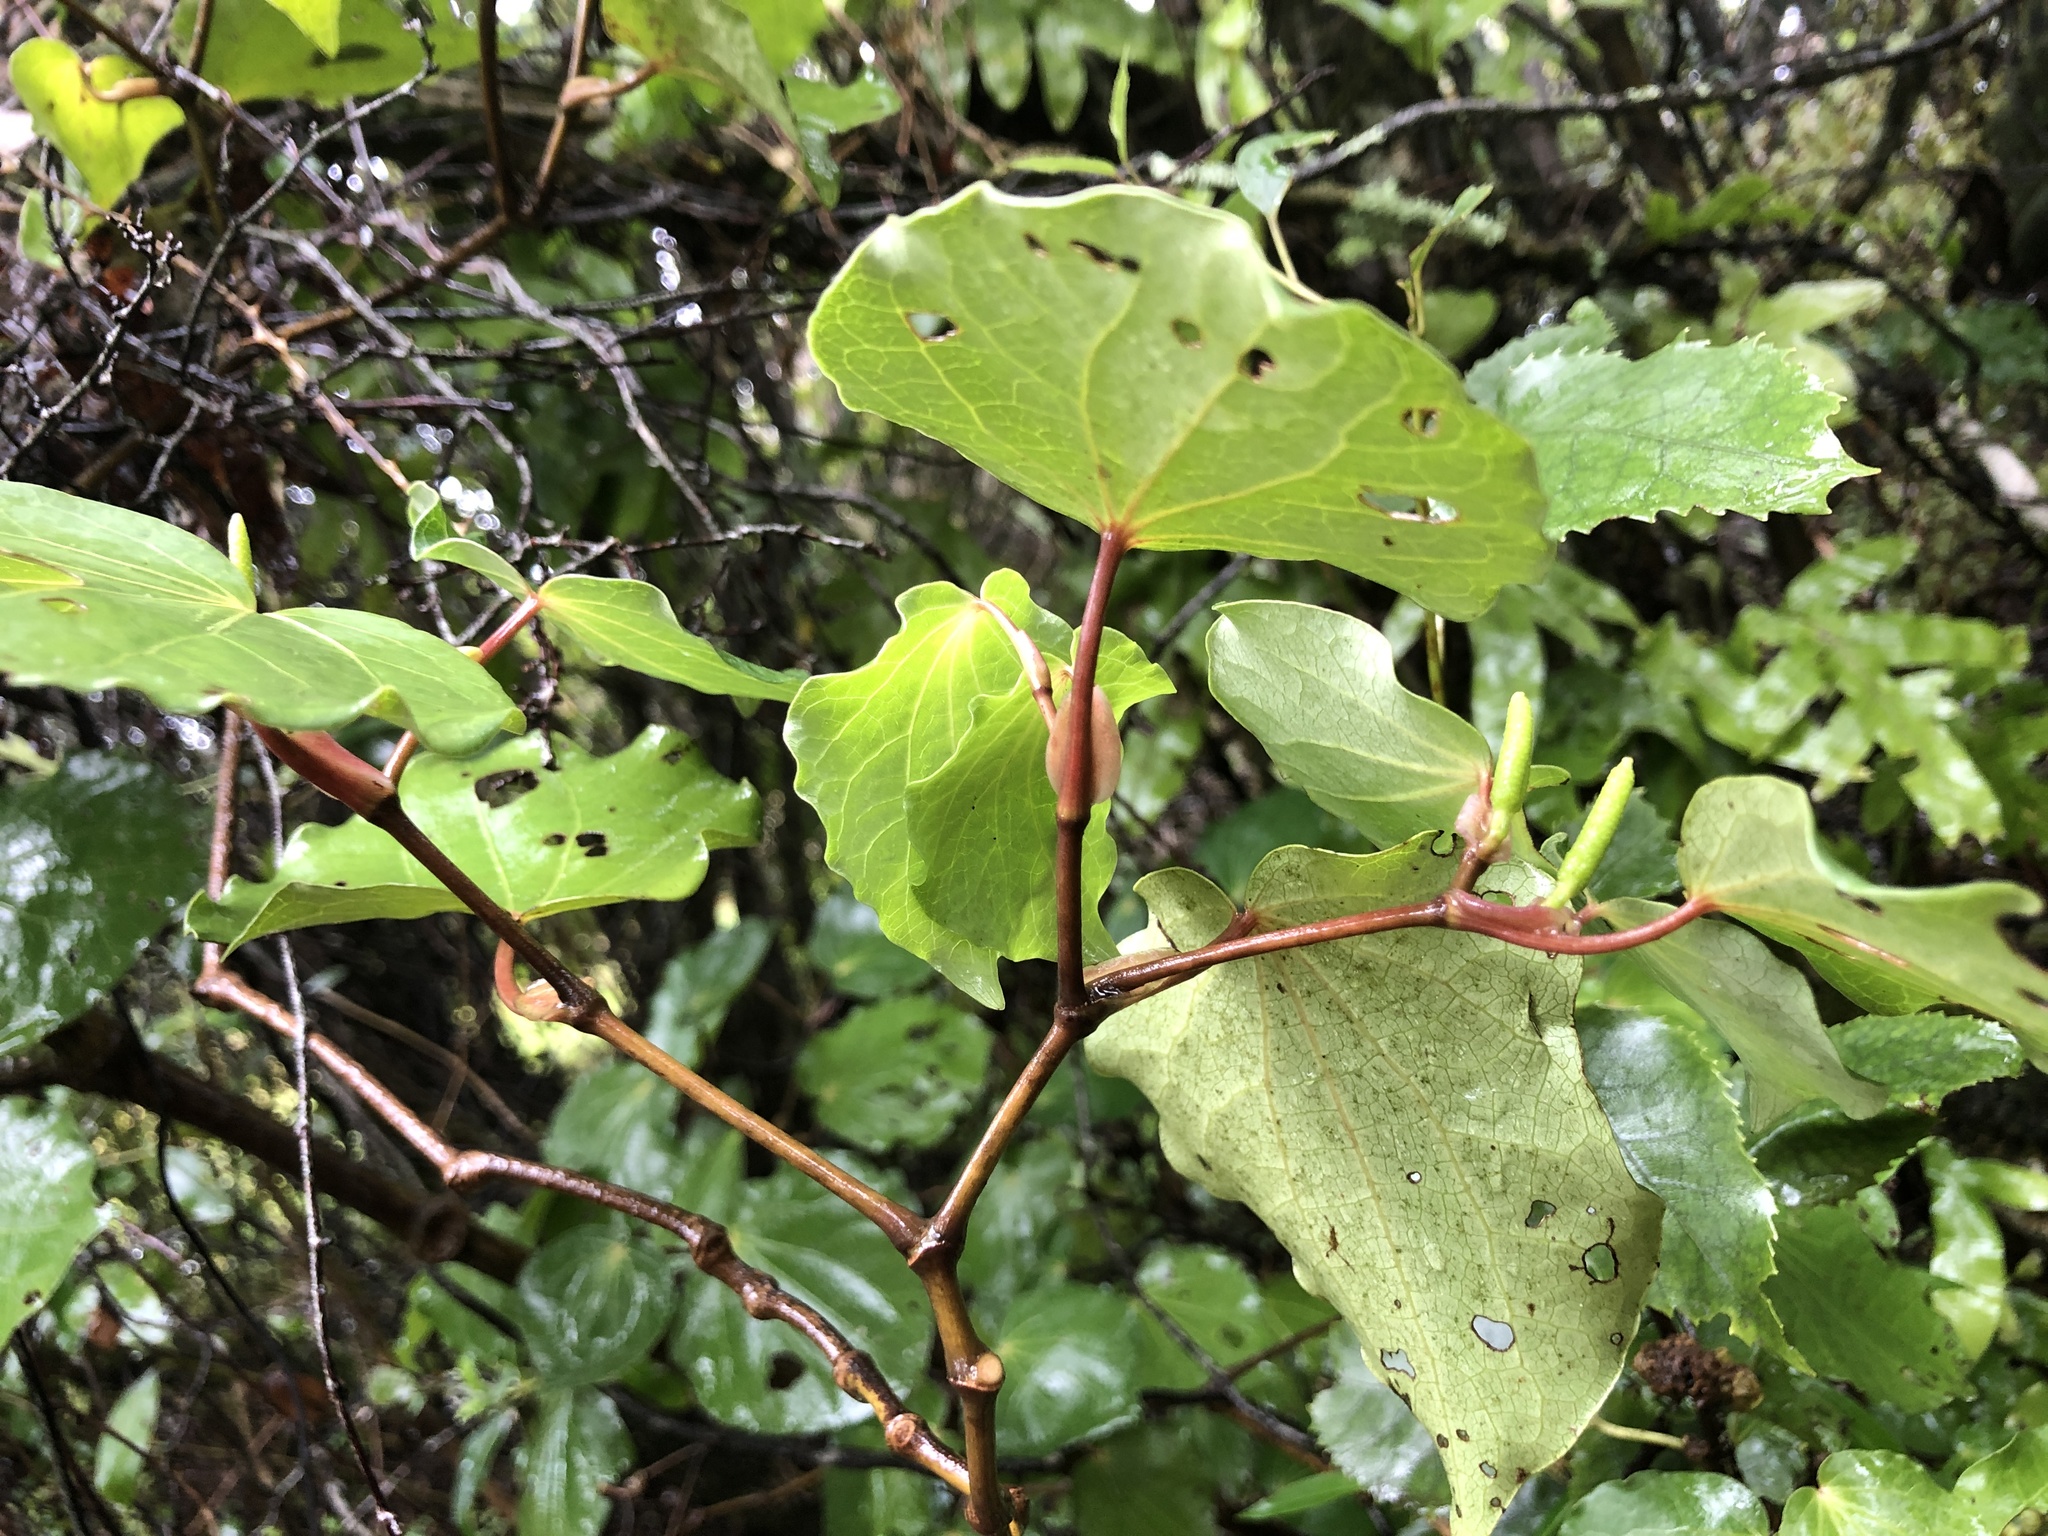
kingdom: Plantae
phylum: Tracheophyta
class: Magnoliopsida
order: Piperales
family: Piperaceae
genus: Macropiper
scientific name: Macropiper excelsum
